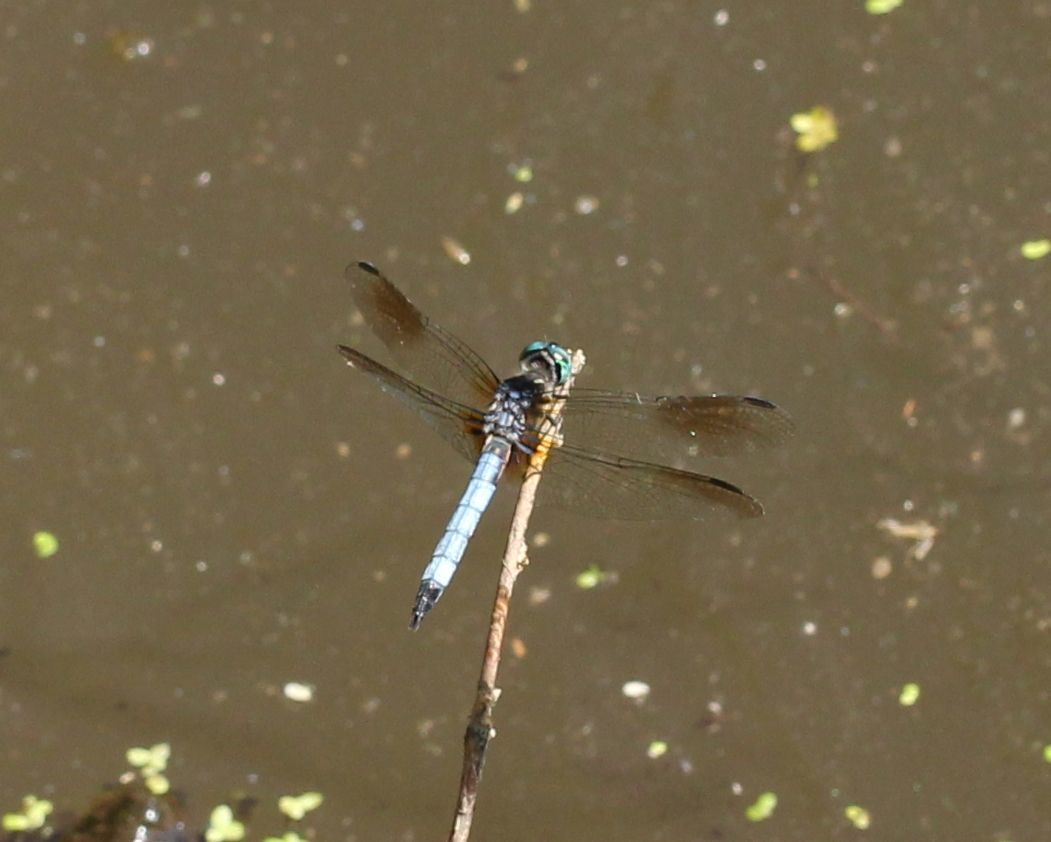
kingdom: Animalia
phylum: Arthropoda
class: Insecta
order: Odonata
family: Libellulidae
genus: Pachydiplax
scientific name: Pachydiplax longipennis
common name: Blue dasher
